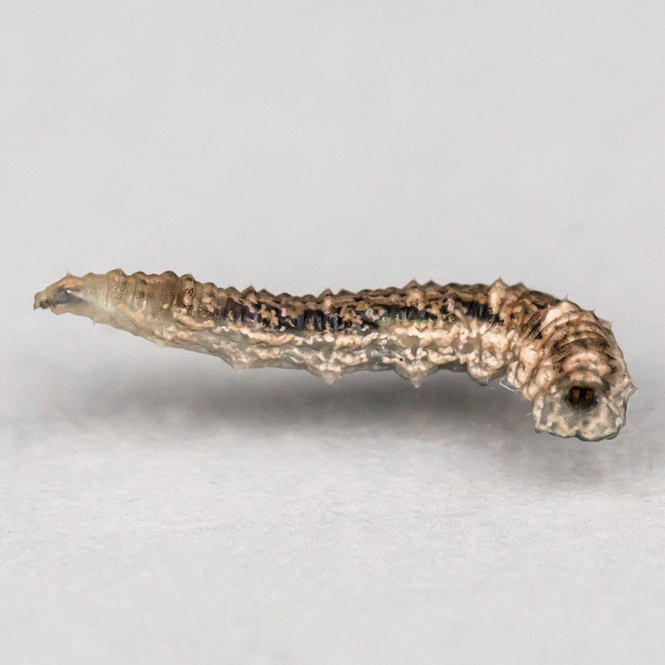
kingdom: Animalia
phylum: Arthropoda
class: Insecta
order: Diptera
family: Syrphidae
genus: Eupeodes
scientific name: Eupeodes americanus
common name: Long-tailed aphideater
